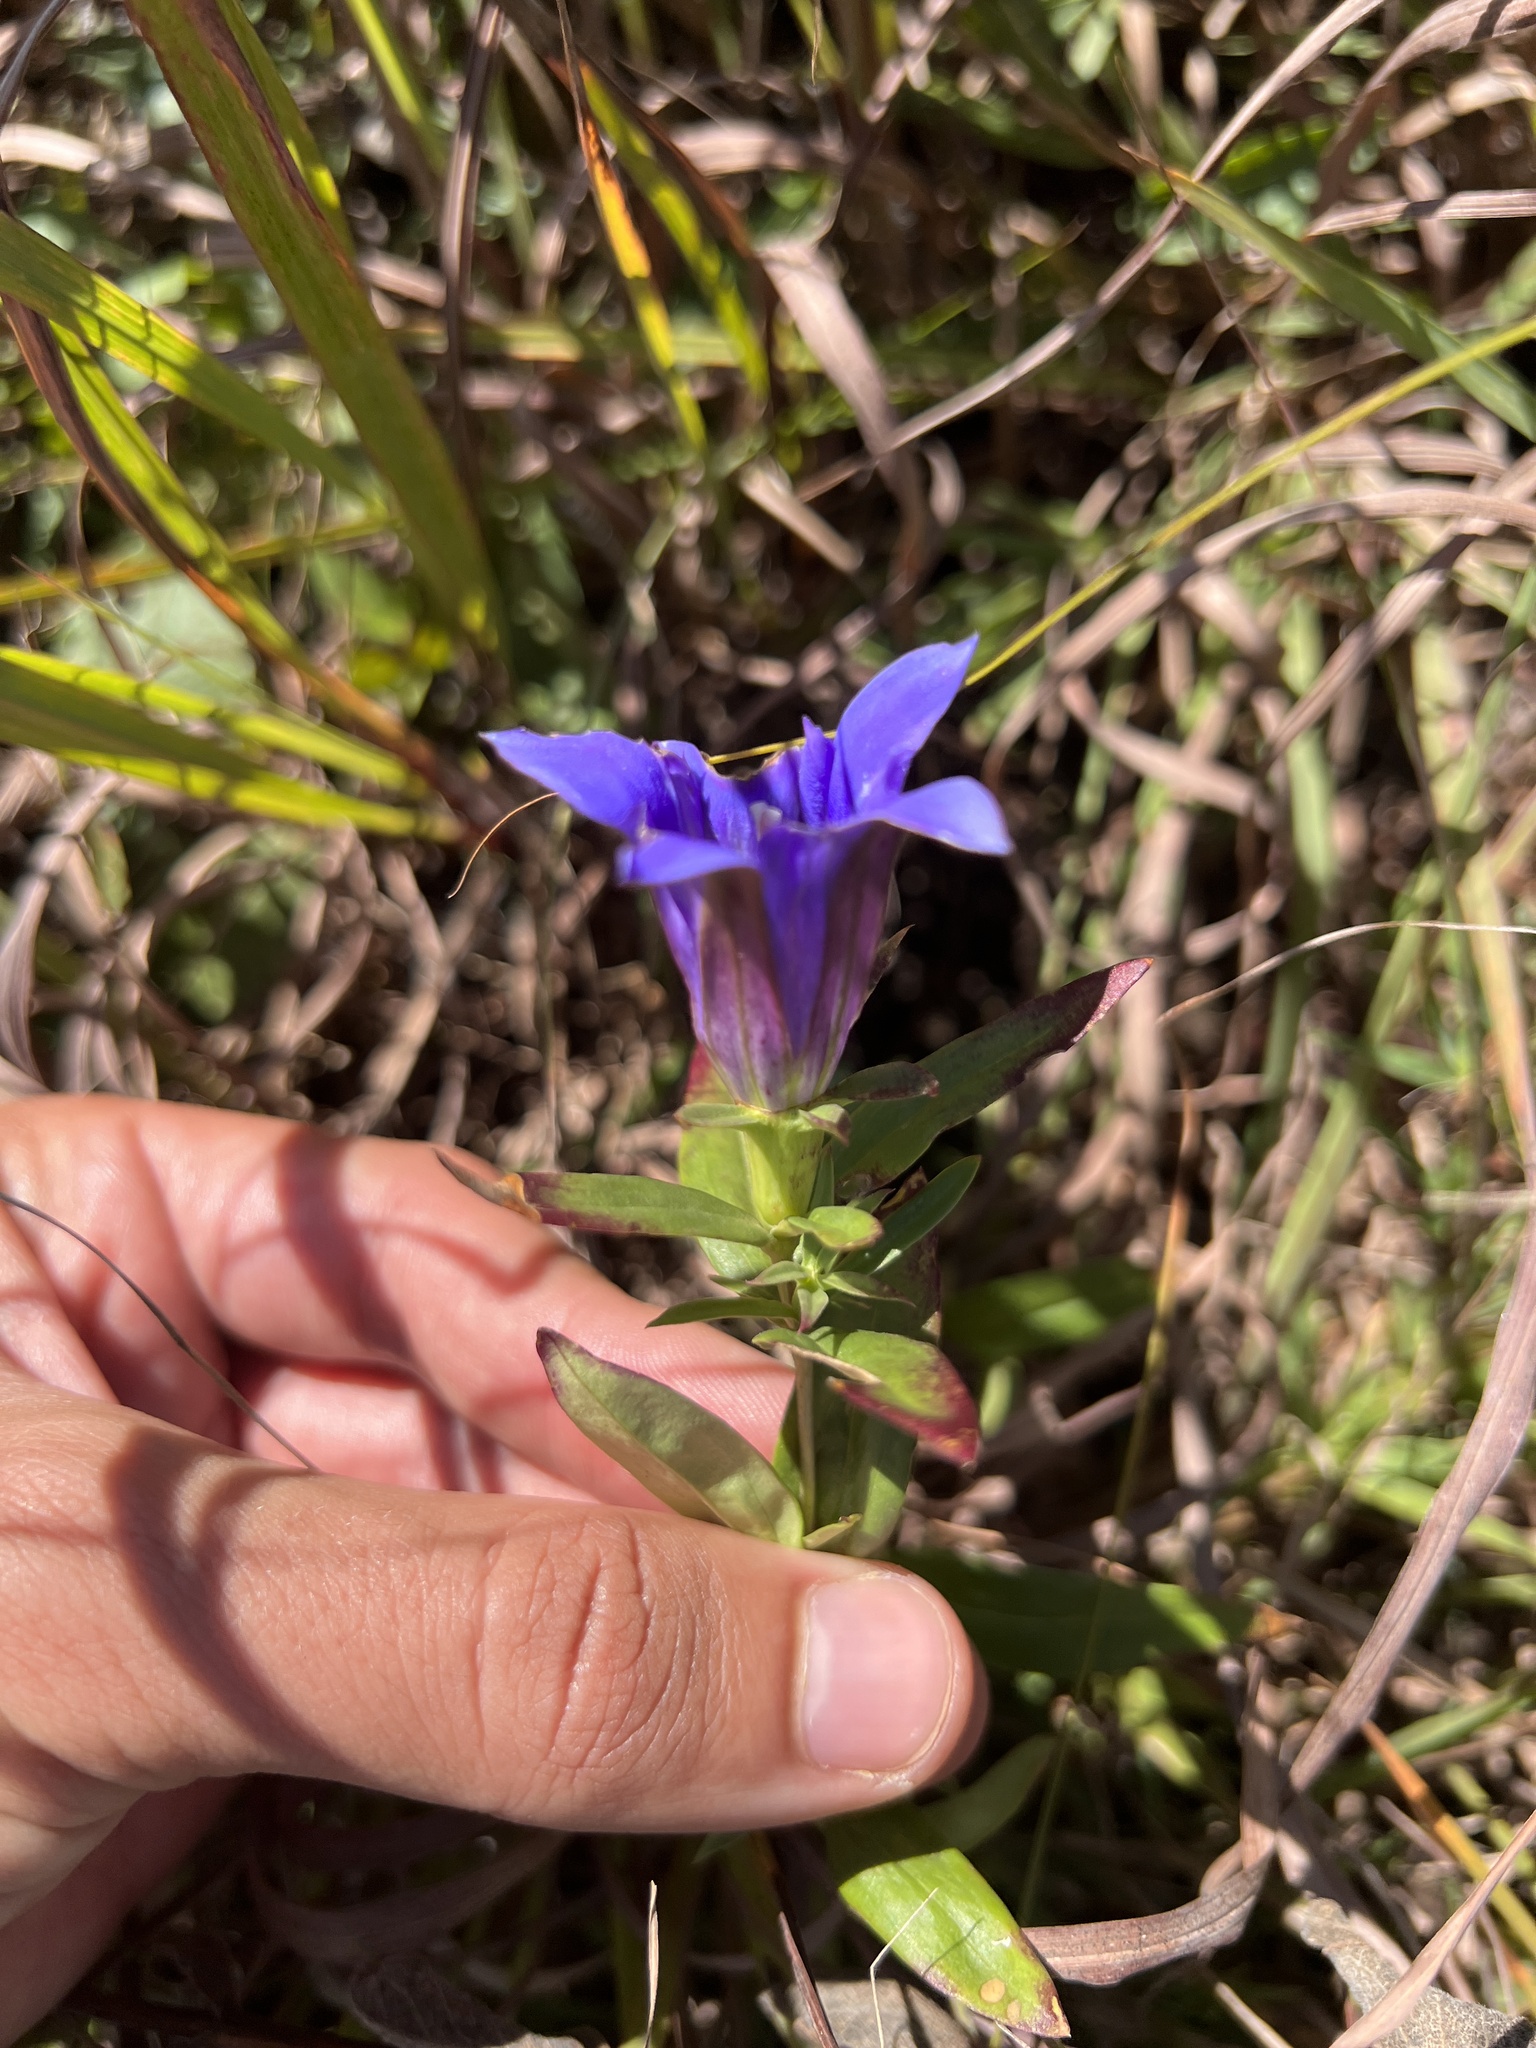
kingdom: Plantae
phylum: Tracheophyta
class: Magnoliopsida
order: Gentianales
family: Gentianaceae
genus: Gentiana
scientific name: Gentiana puberulenta
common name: Downy gentian
